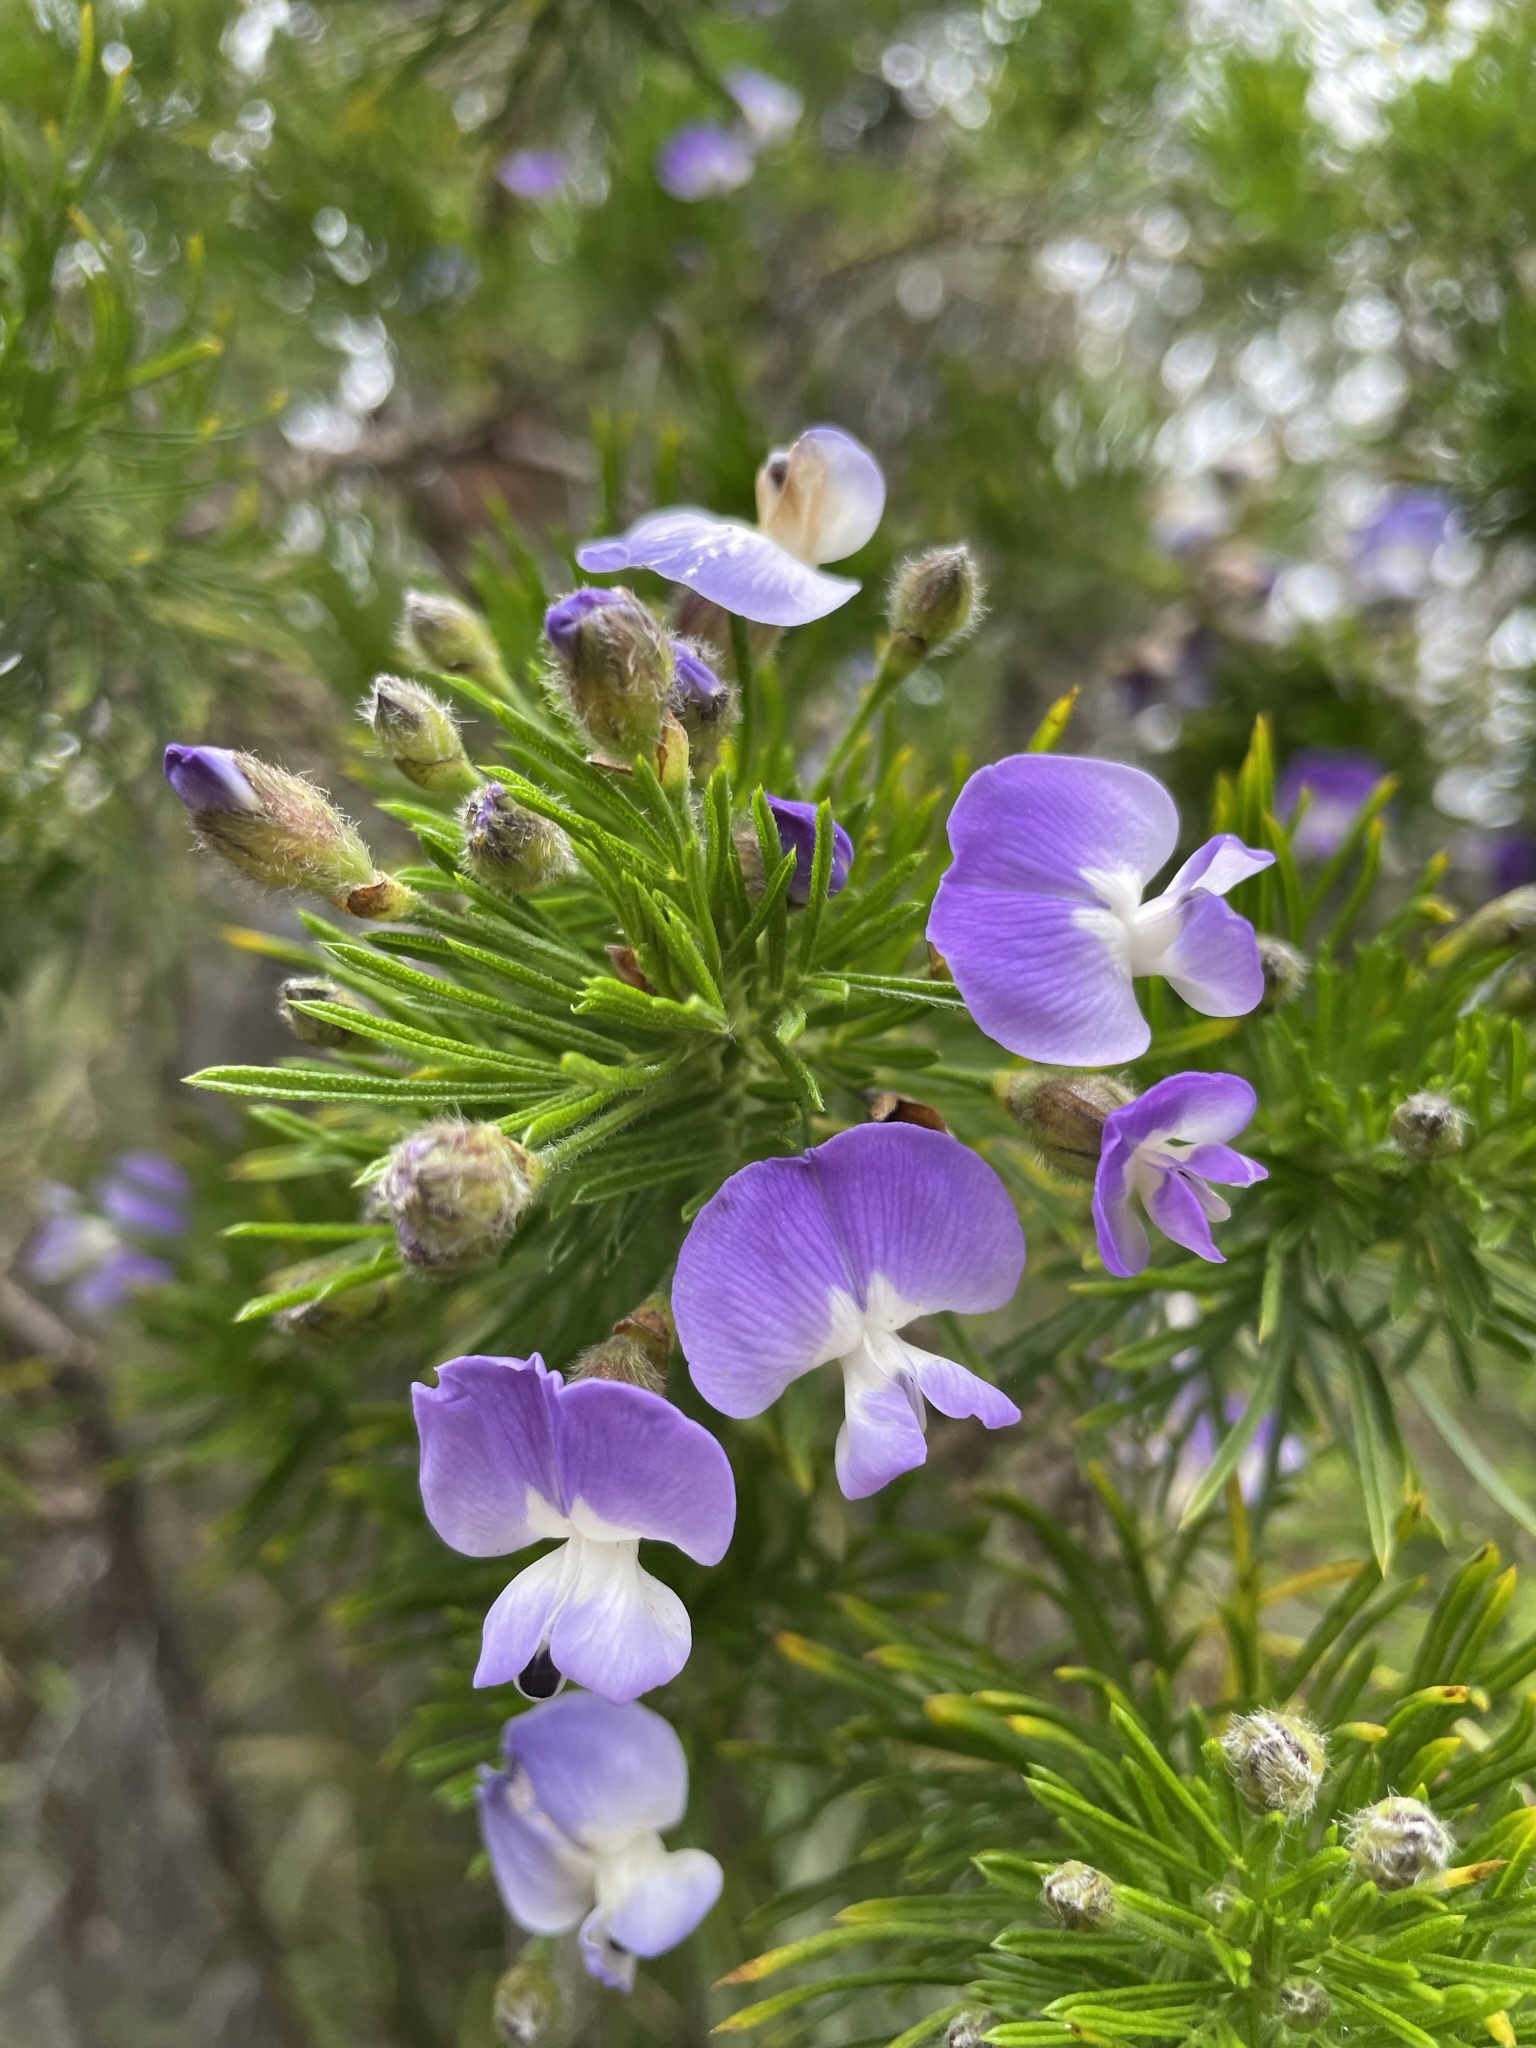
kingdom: Plantae
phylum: Tracheophyta
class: Magnoliopsida
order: Fabales
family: Fabaceae
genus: Psoralea
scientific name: Psoralea arborea
